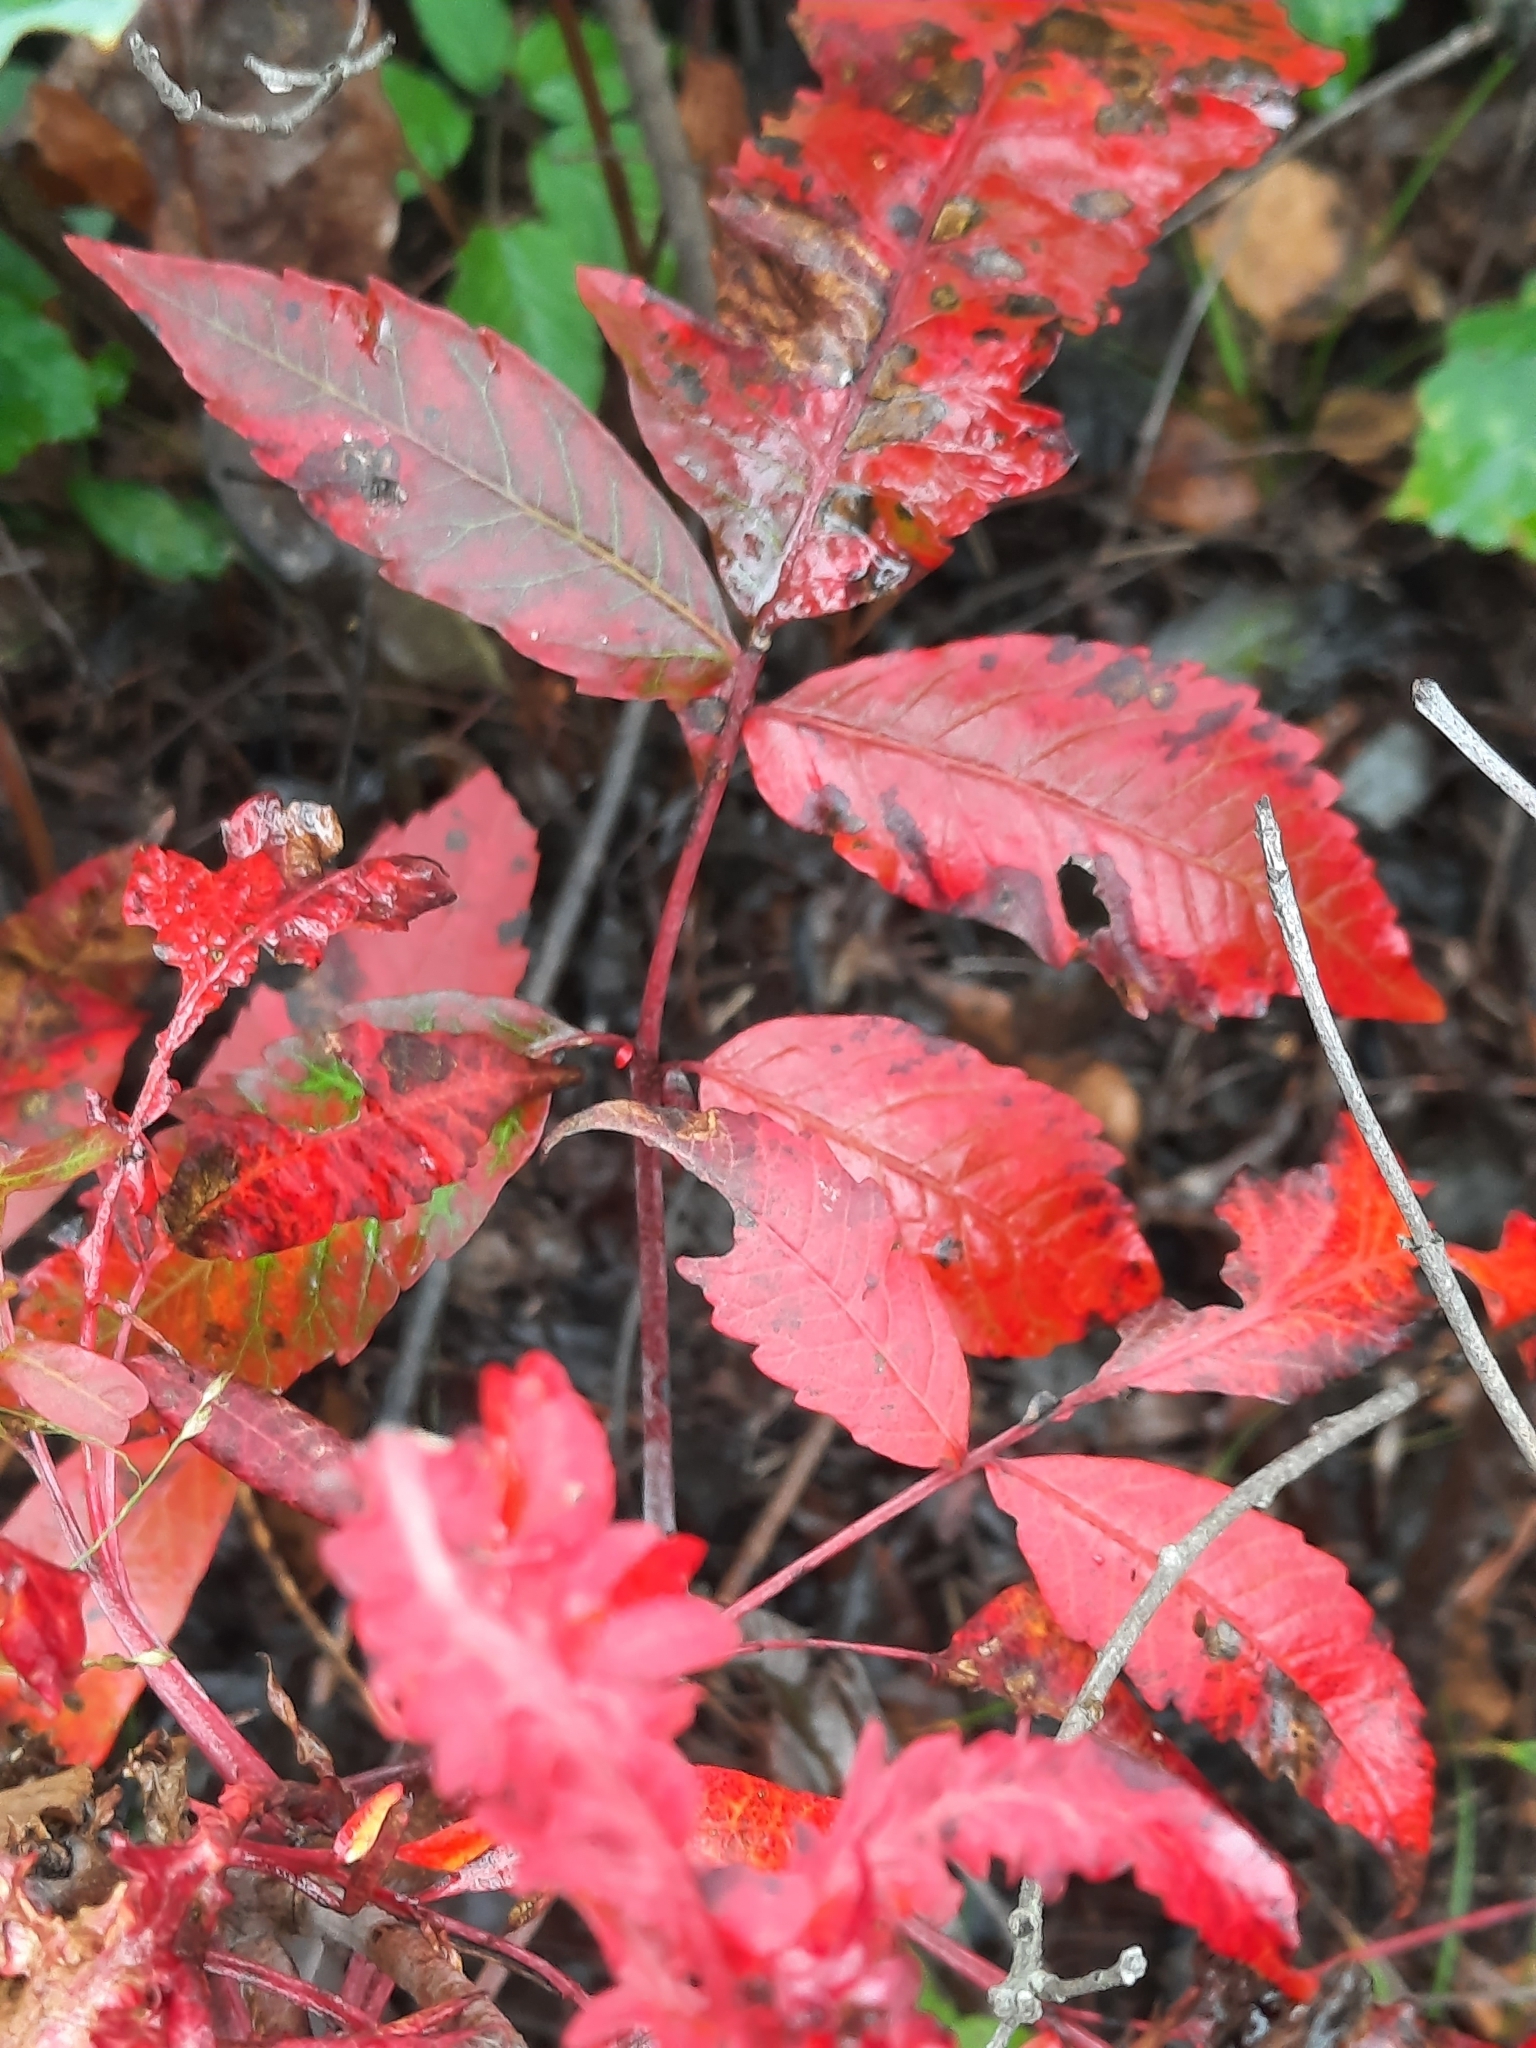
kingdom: Animalia
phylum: Arthropoda
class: Arachnida
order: Trombidiformes
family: Eriophyidae
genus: Eriophyes
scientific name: Eriophyes
